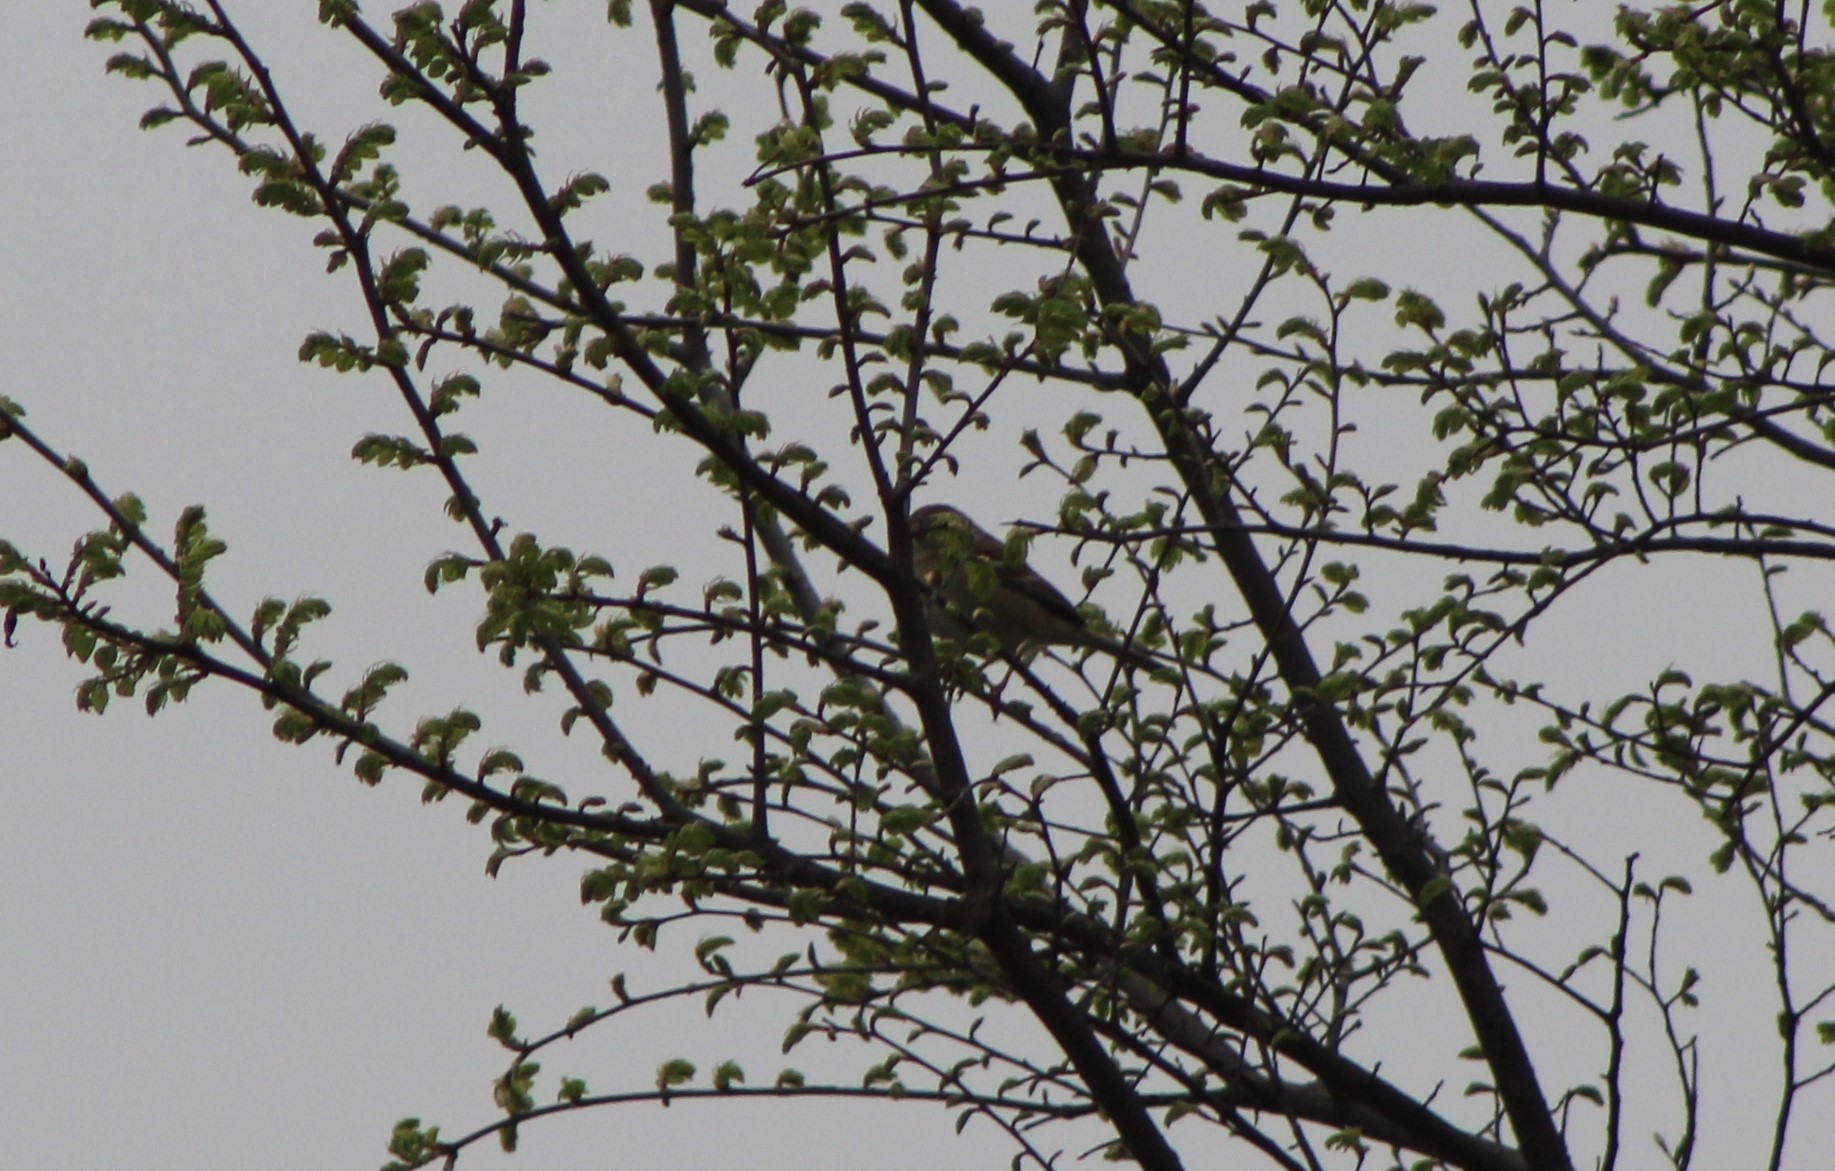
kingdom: Animalia
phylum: Chordata
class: Aves
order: Passeriformes
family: Passerellidae
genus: Spizella
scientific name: Spizella pusilla
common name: Field sparrow
